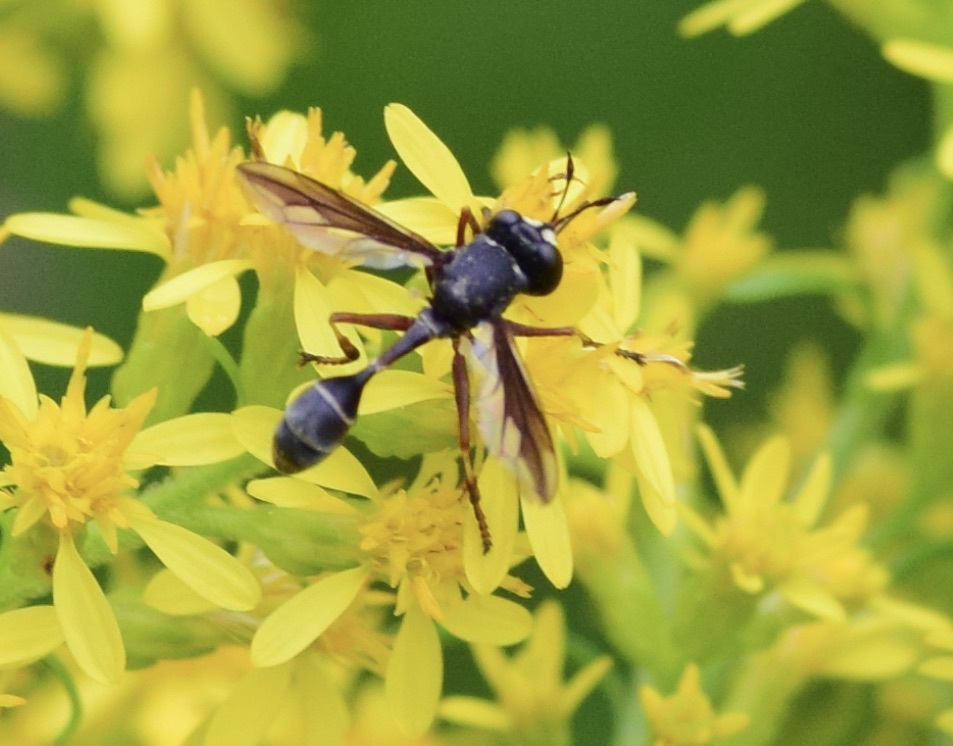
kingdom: Animalia
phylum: Arthropoda
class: Insecta
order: Diptera
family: Conopidae
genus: Physocephala
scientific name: Physocephala furcillata
